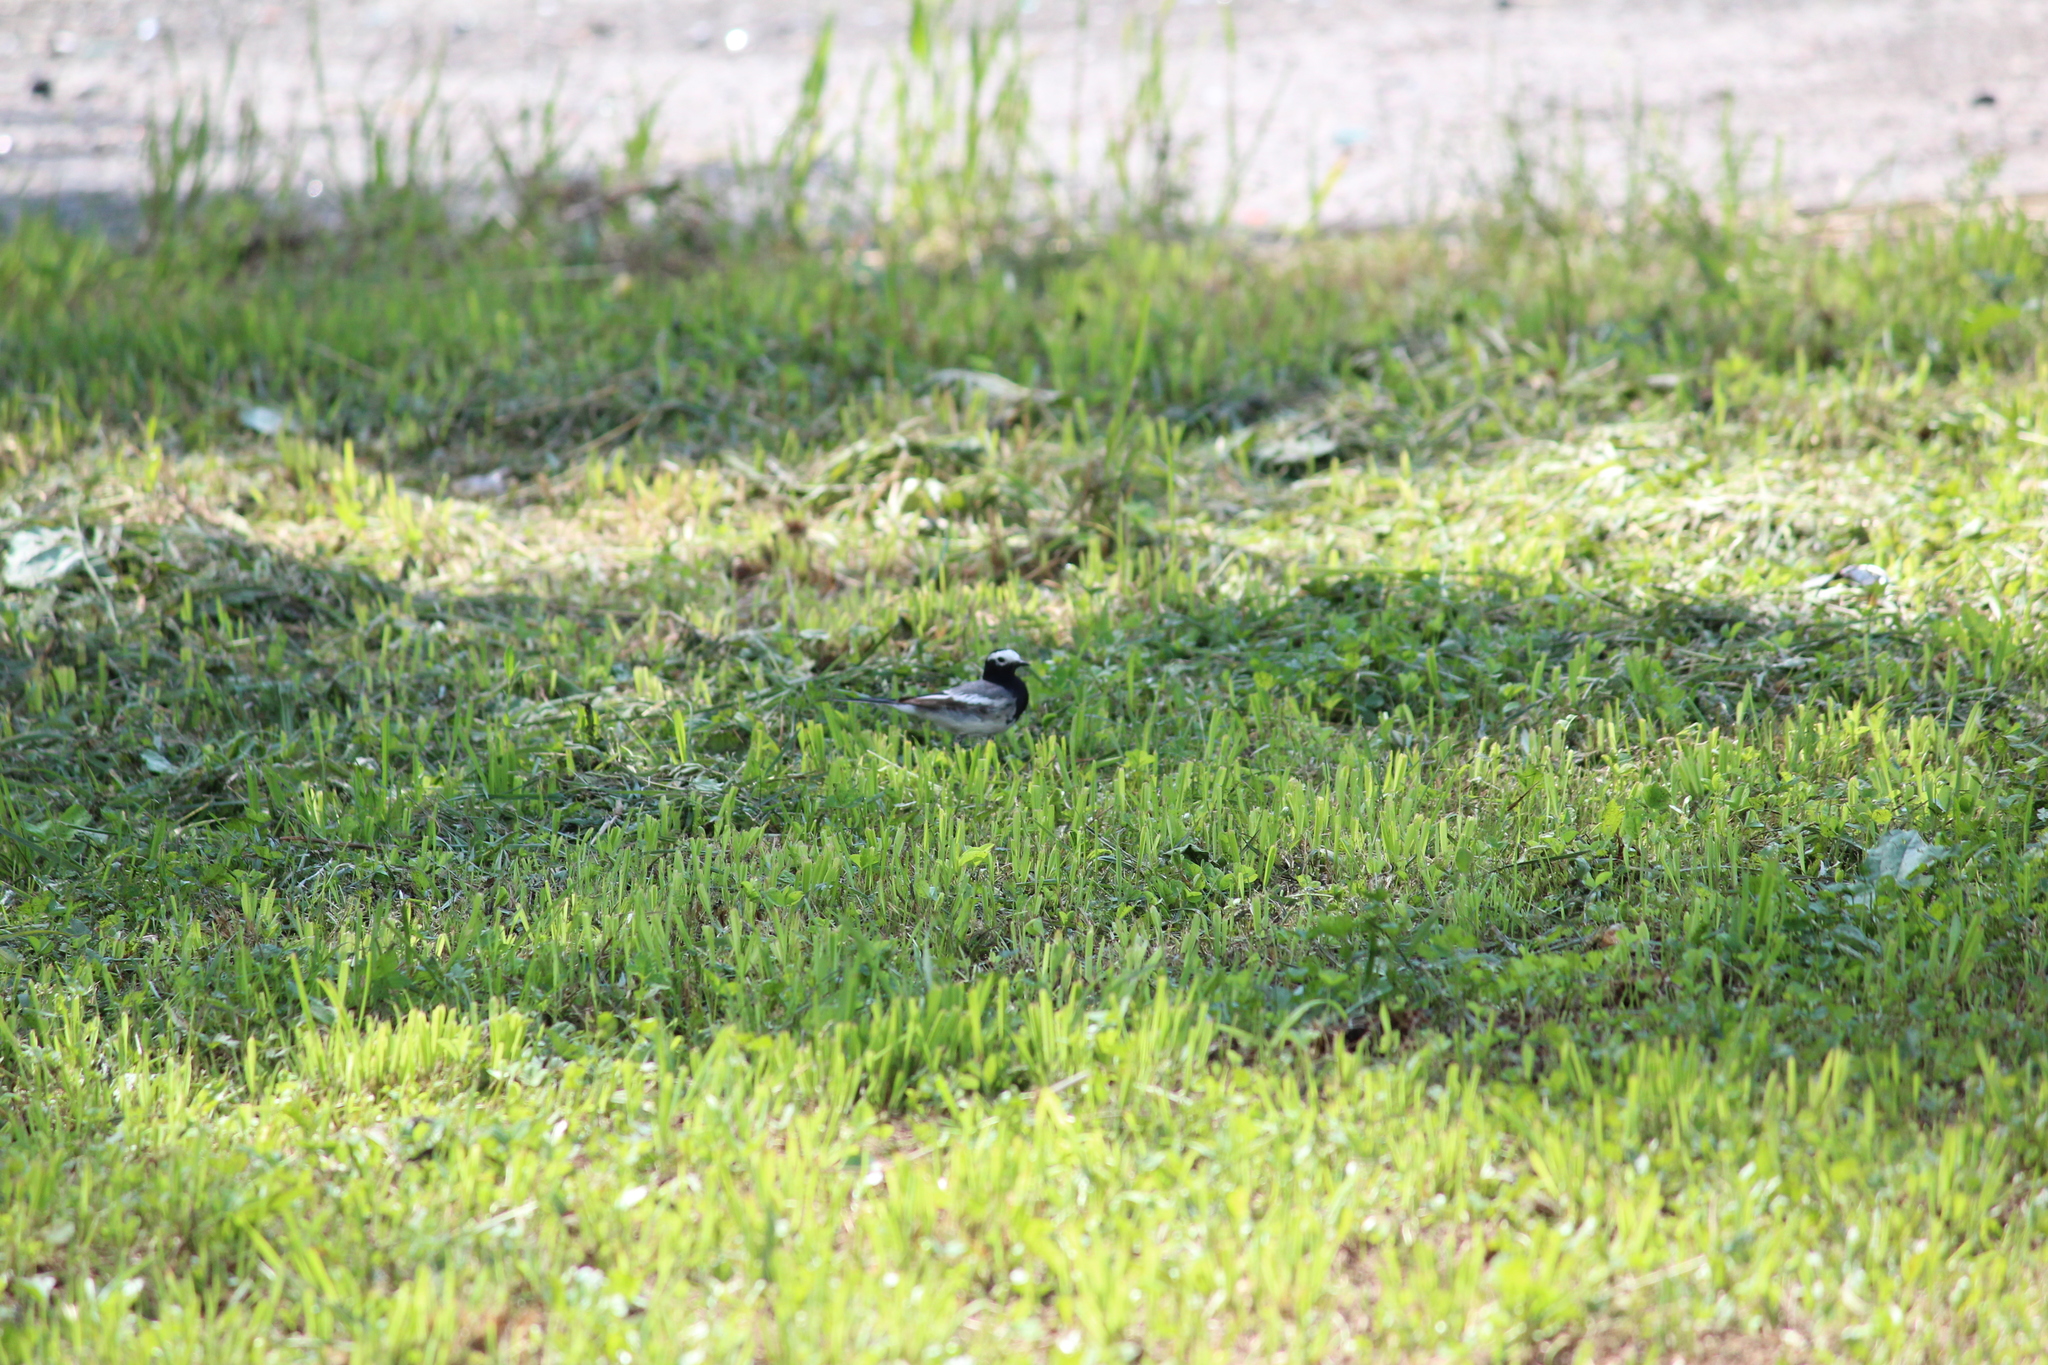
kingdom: Animalia
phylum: Chordata
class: Aves
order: Passeriformes
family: Motacillidae
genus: Motacilla
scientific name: Motacilla alba
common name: White wagtail
